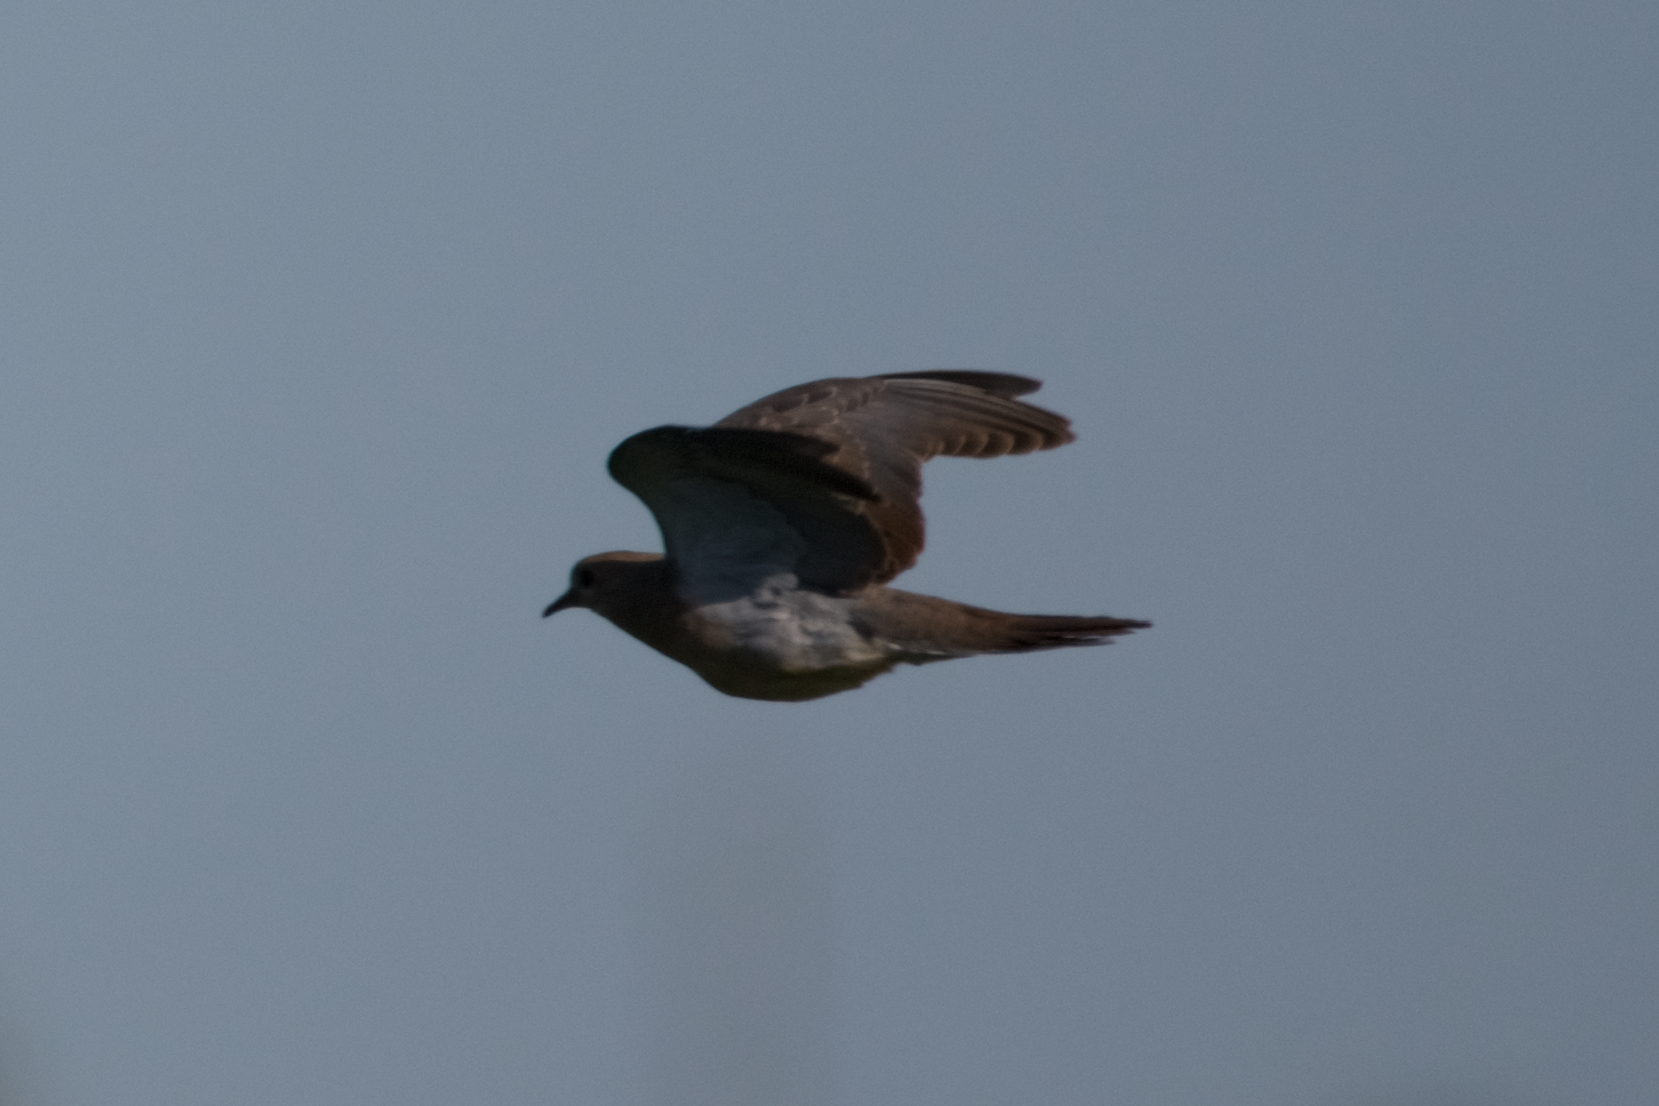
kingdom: Animalia
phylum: Chordata
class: Aves
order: Columbiformes
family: Columbidae
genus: Zenaida
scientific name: Zenaida macroura
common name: Mourning dove
